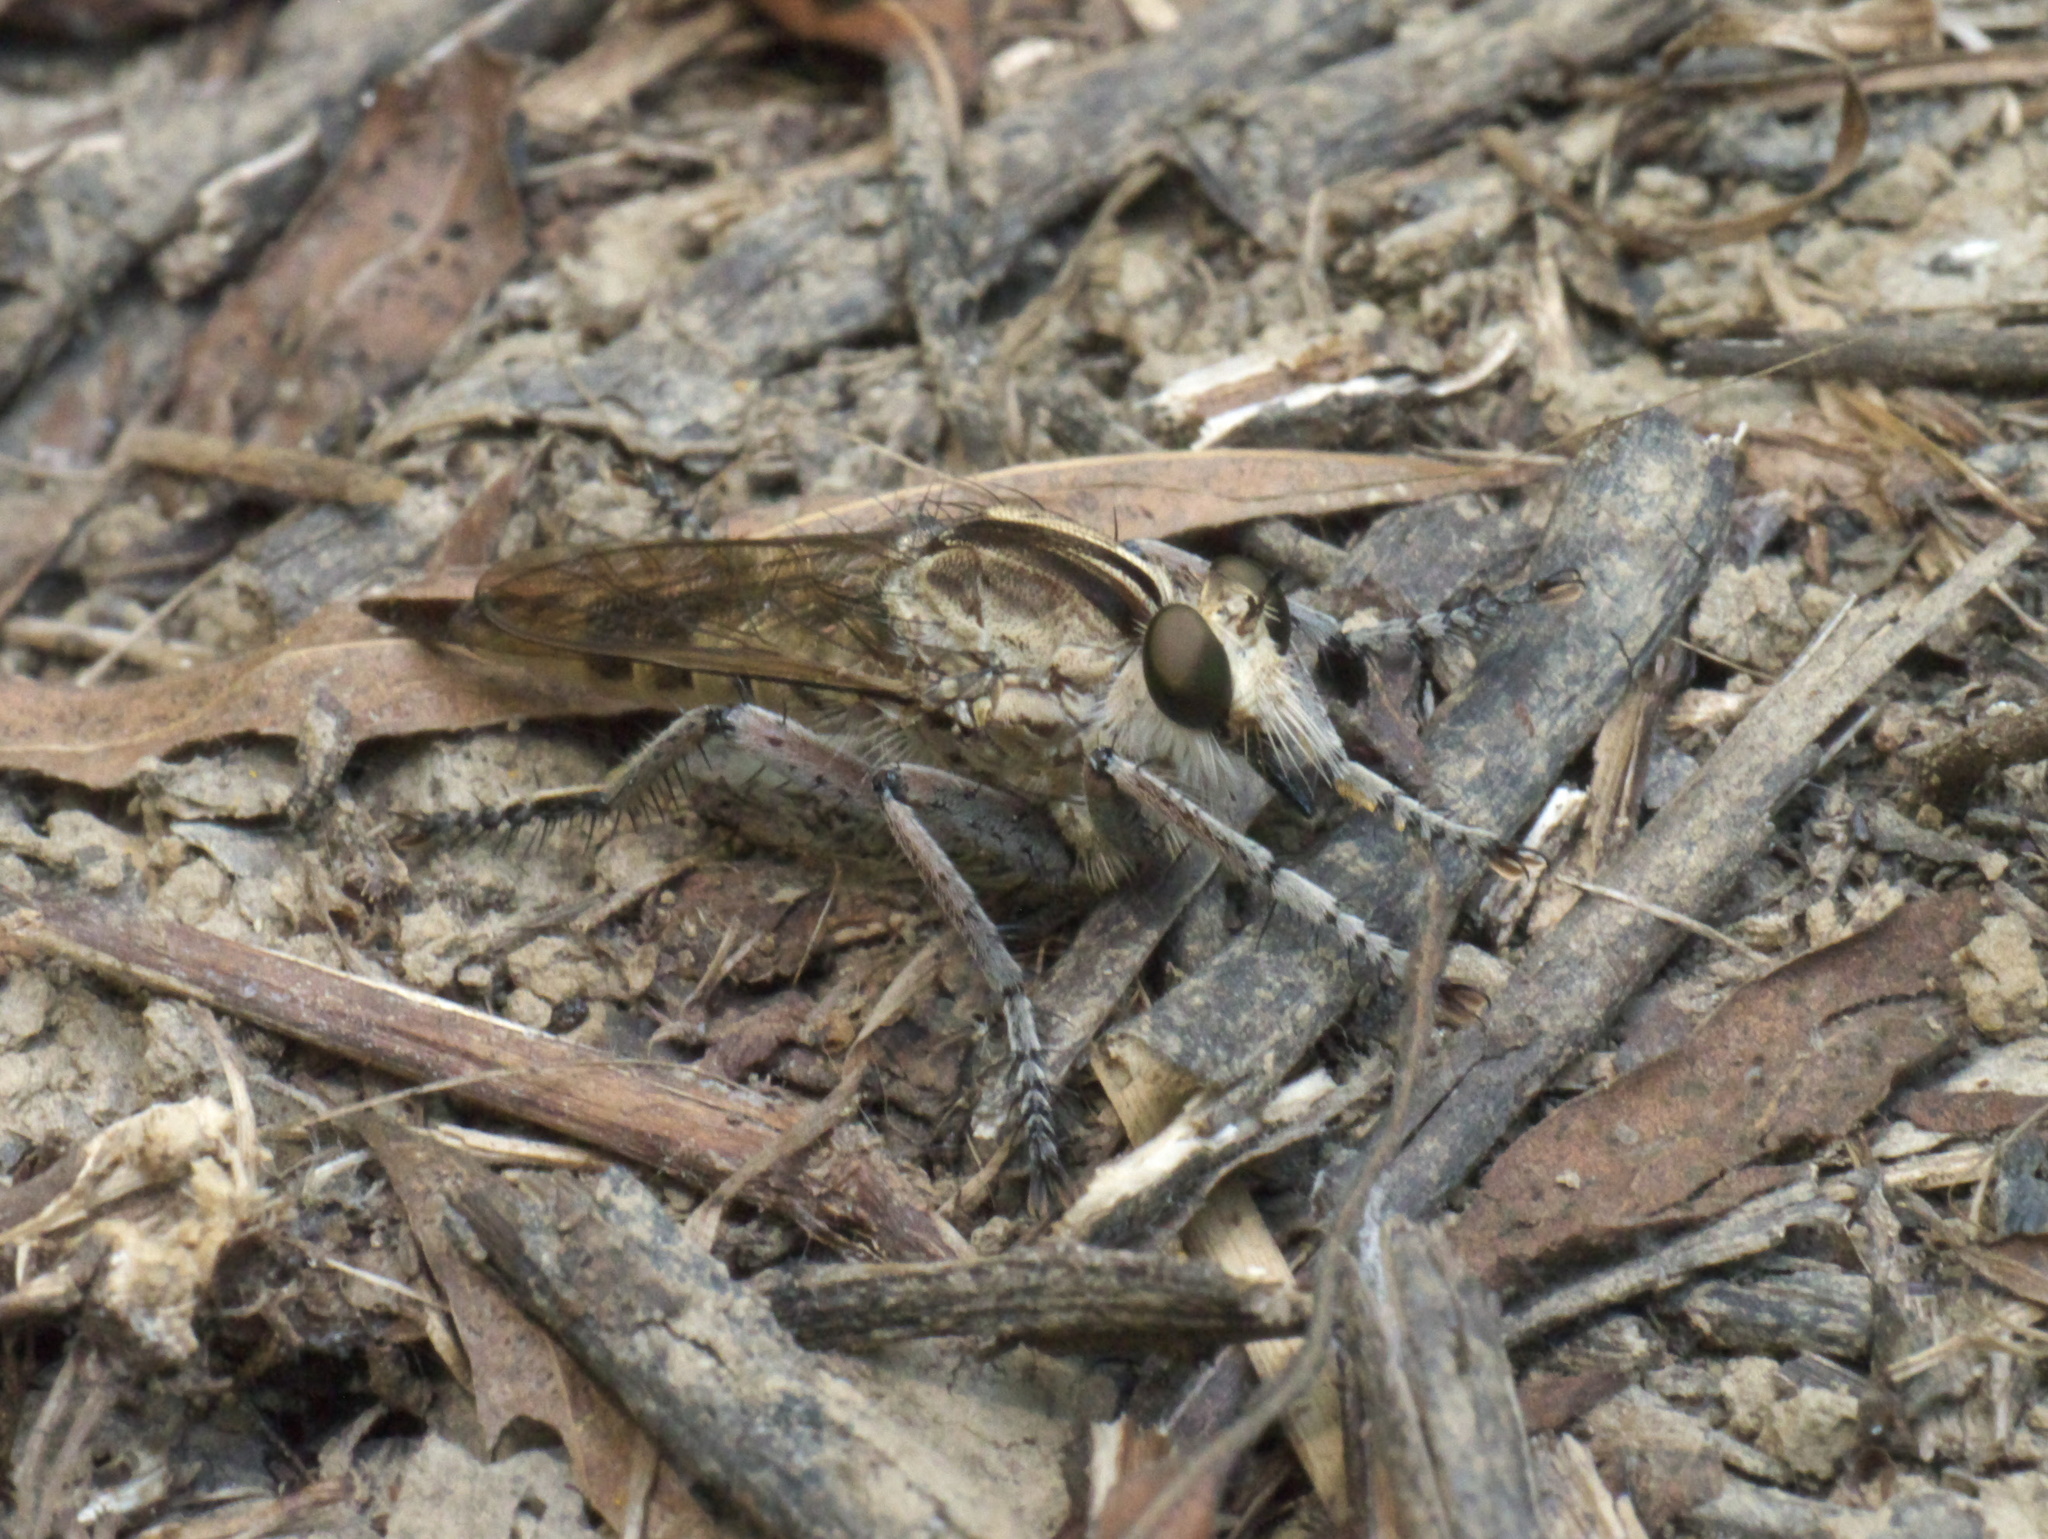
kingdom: Animalia
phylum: Arthropoda
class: Insecta
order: Diptera
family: Asilidae
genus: Triorla
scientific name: Triorla interrupta
